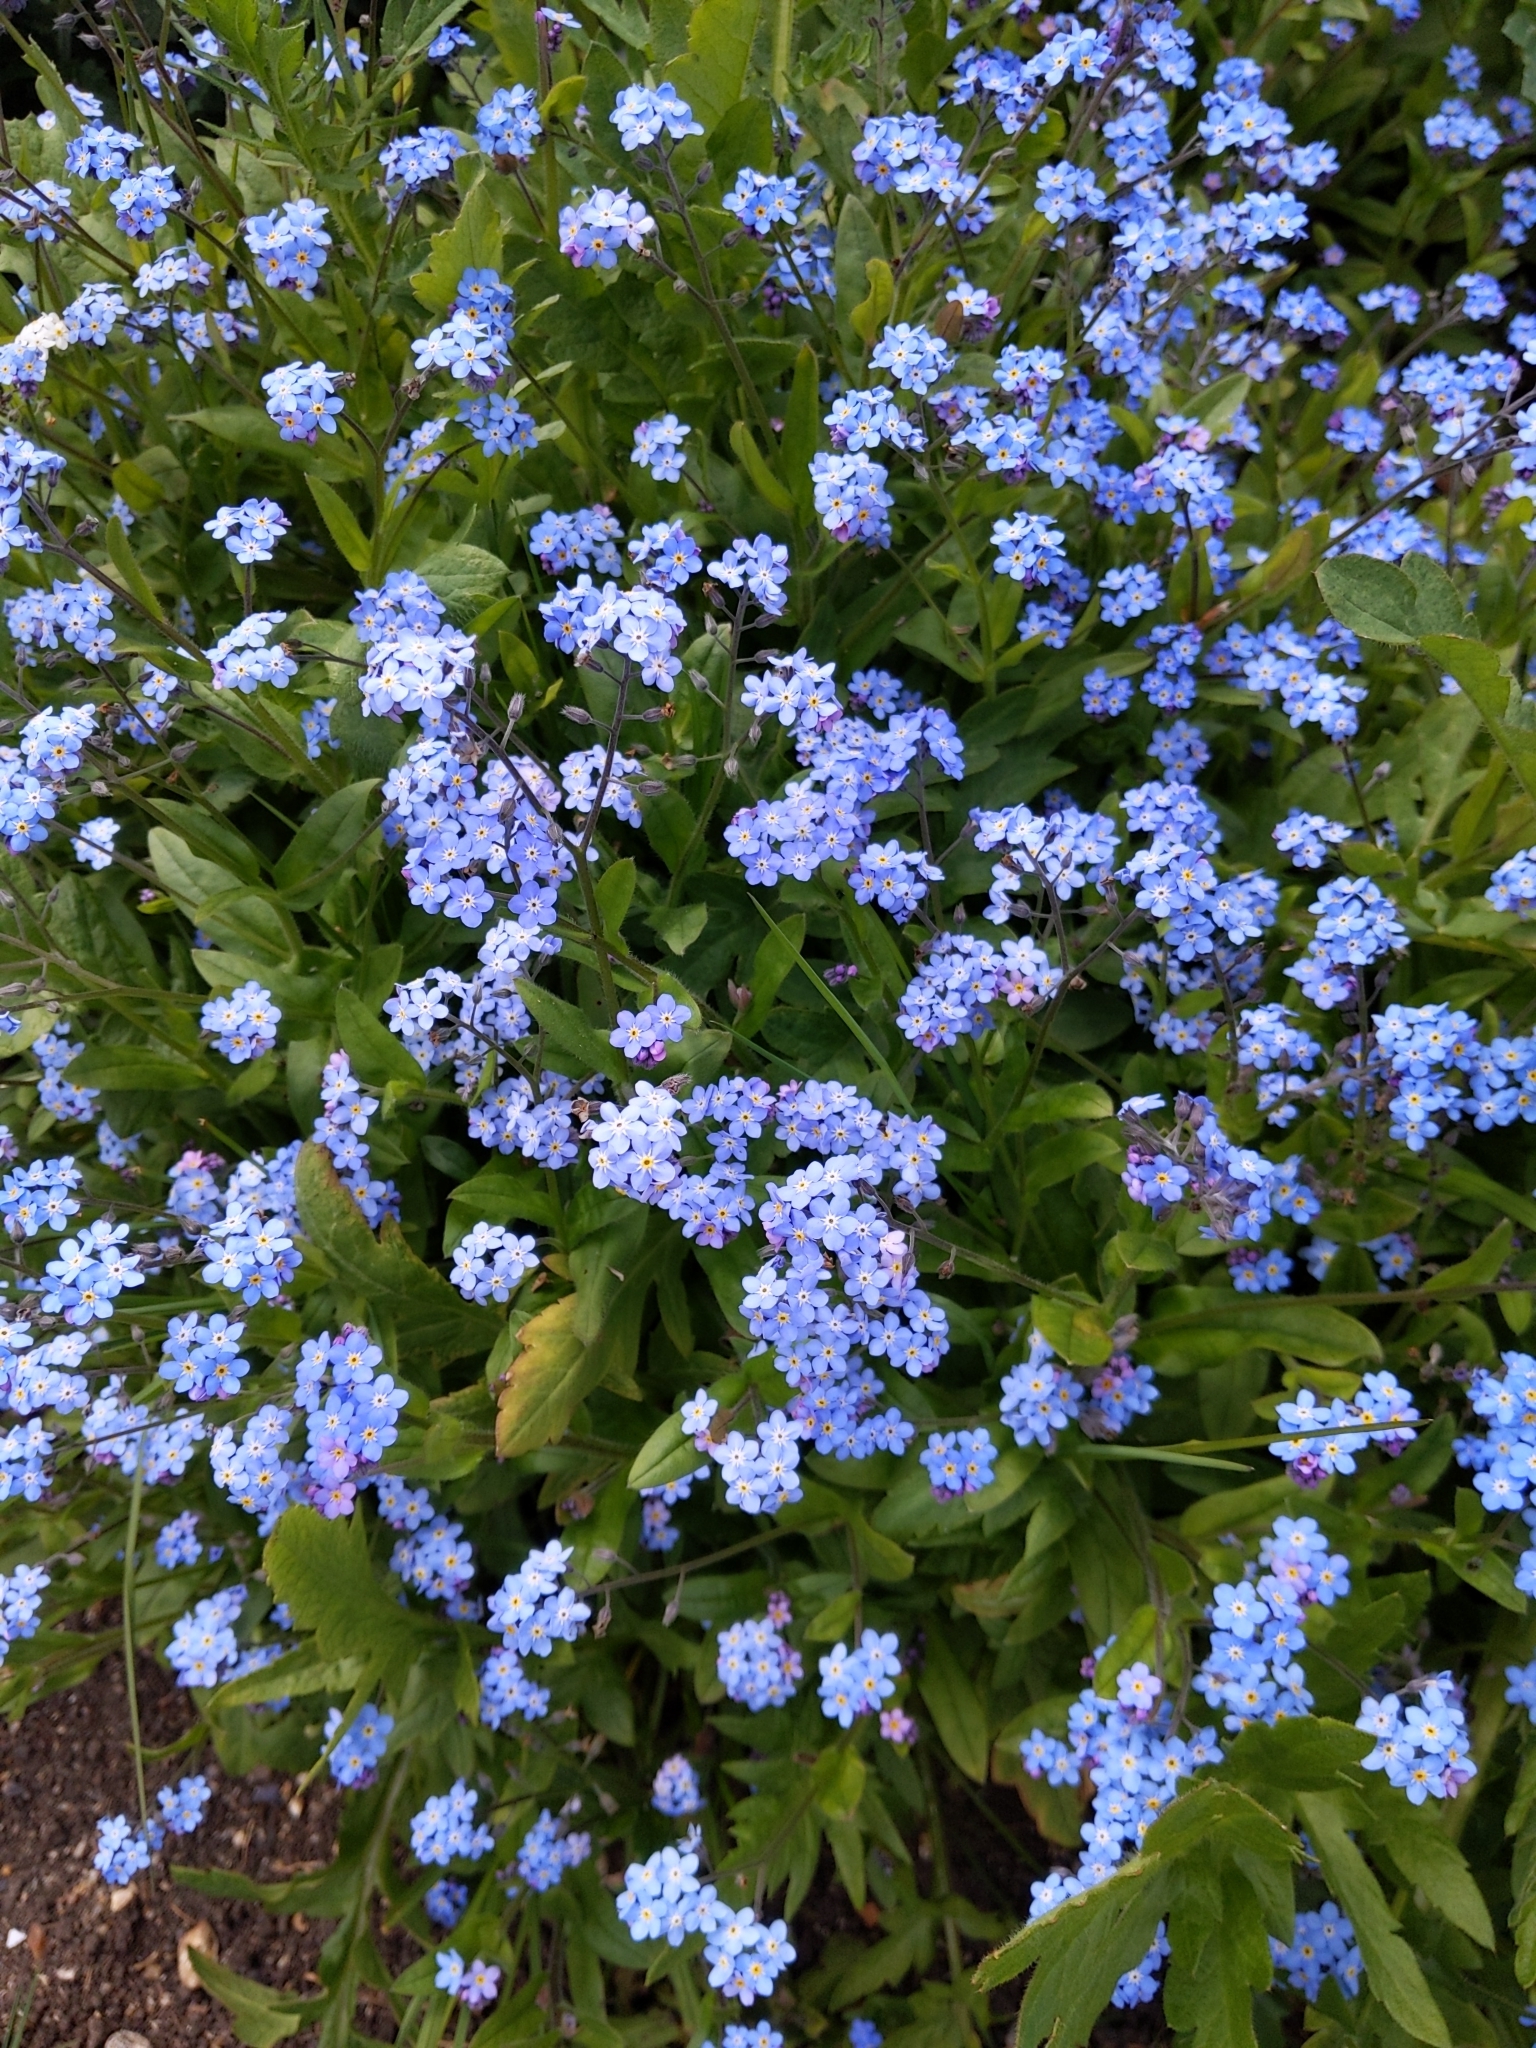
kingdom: Plantae
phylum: Tracheophyta
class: Magnoliopsida
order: Boraginales
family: Boraginaceae
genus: Myosotis
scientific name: Myosotis sylvatica
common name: Wood forget-me-not
